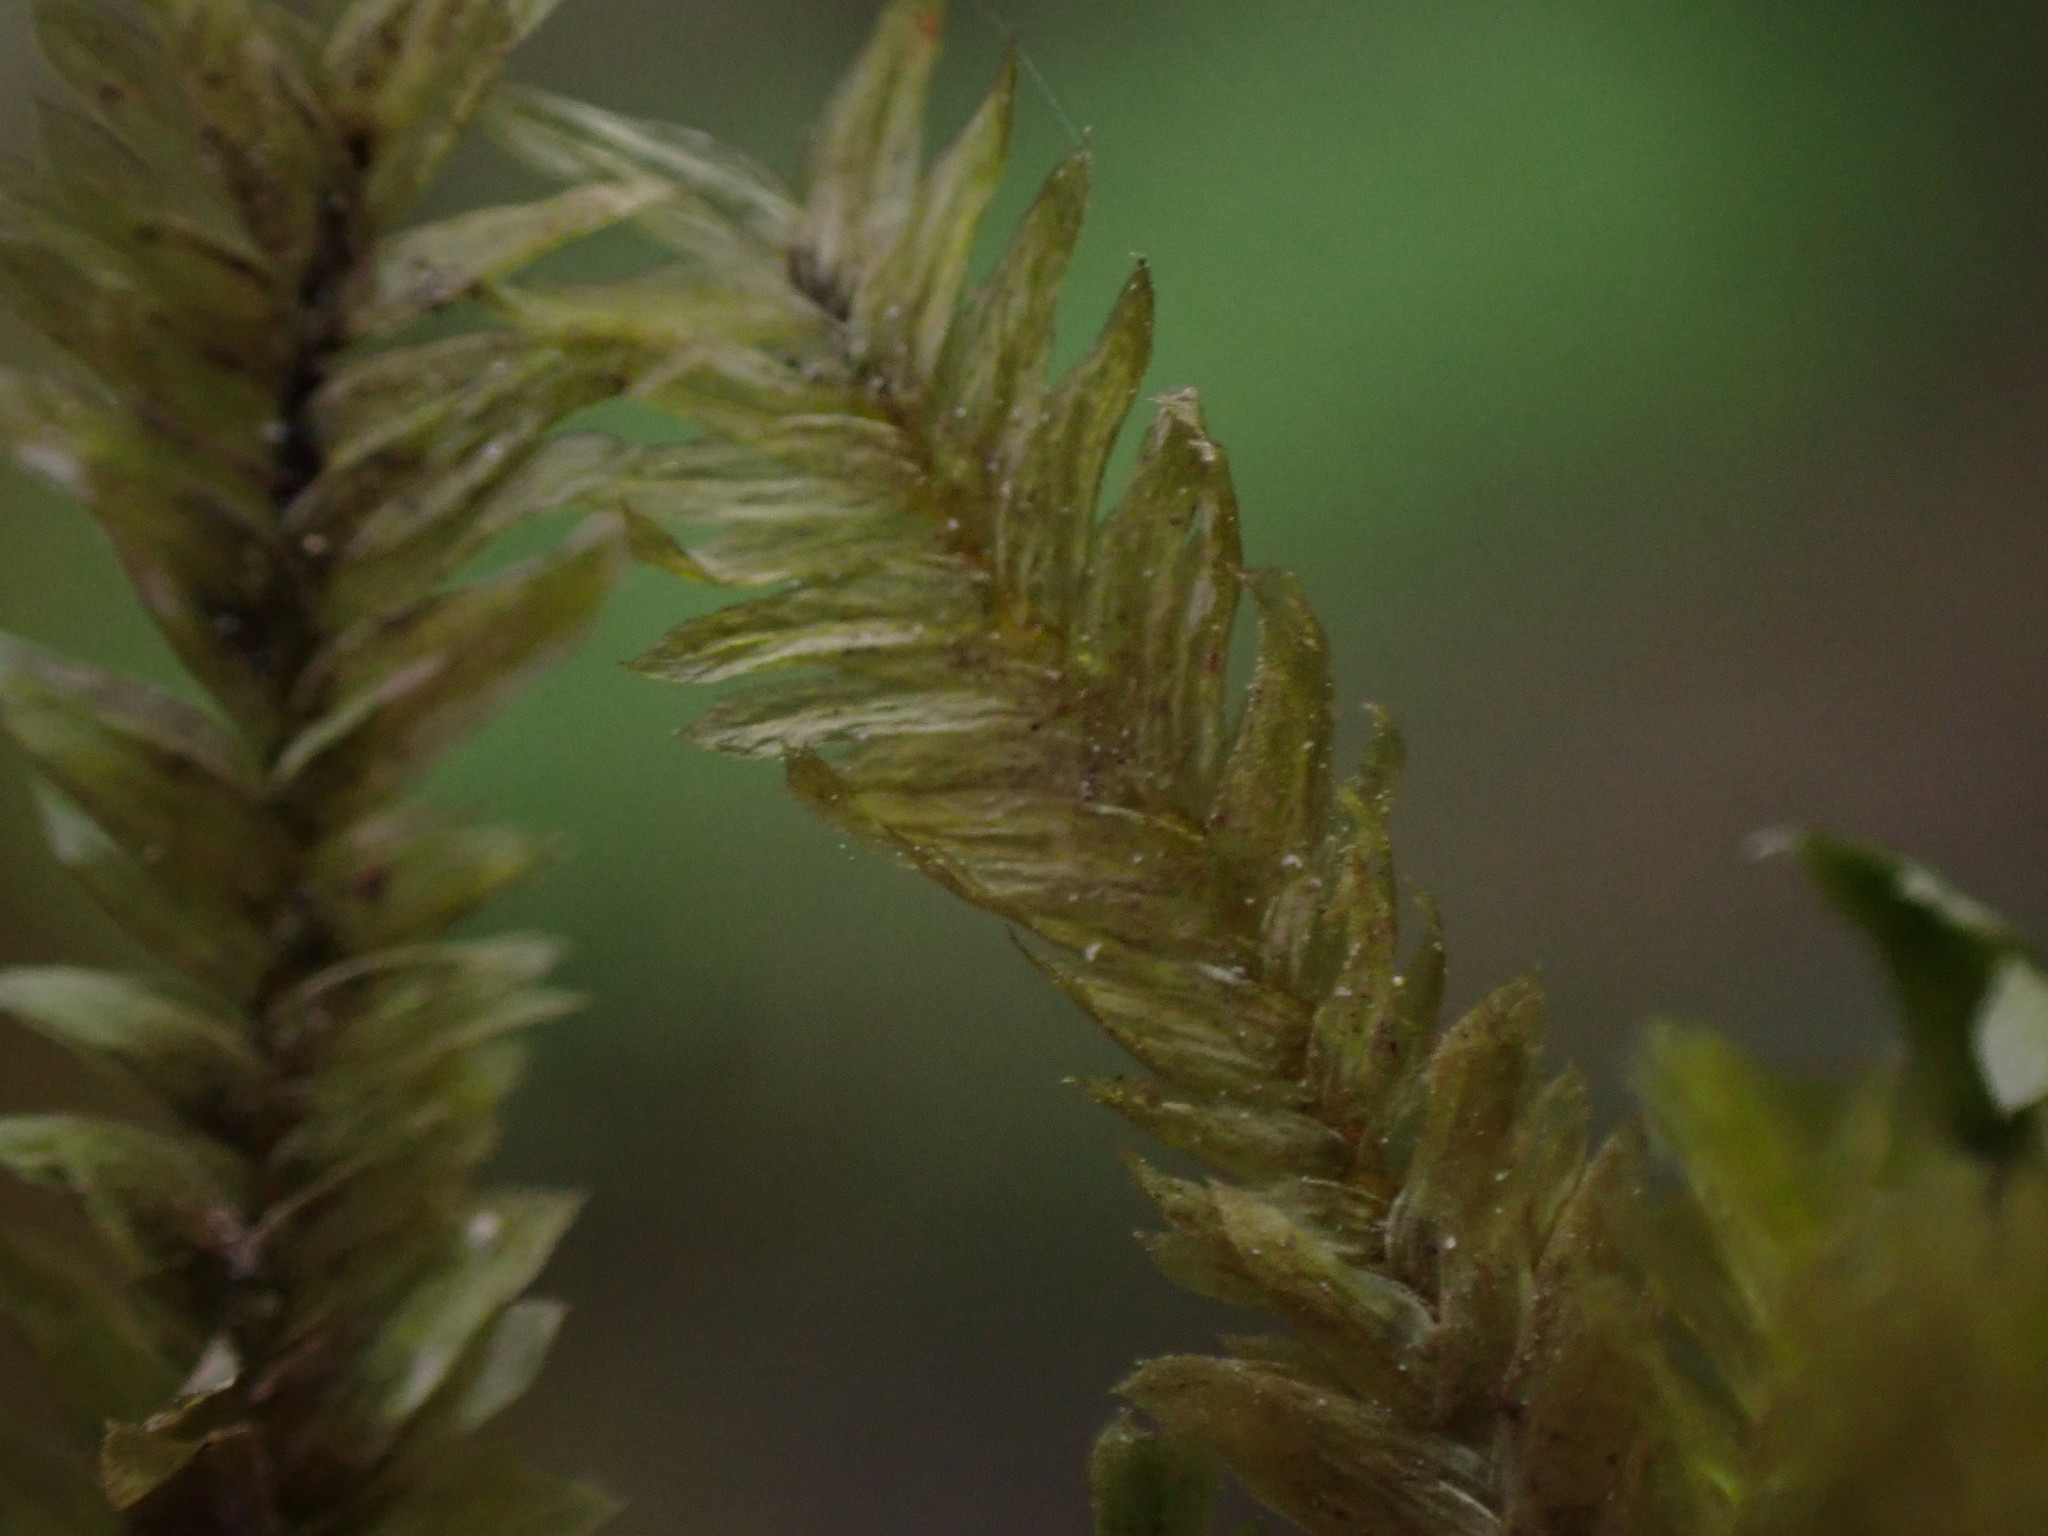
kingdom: Plantae
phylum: Bryophyta
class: Bryopsida
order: Hypnales
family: Neckeraceae
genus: Dannorrisia
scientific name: Dannorrisia bigelovii
